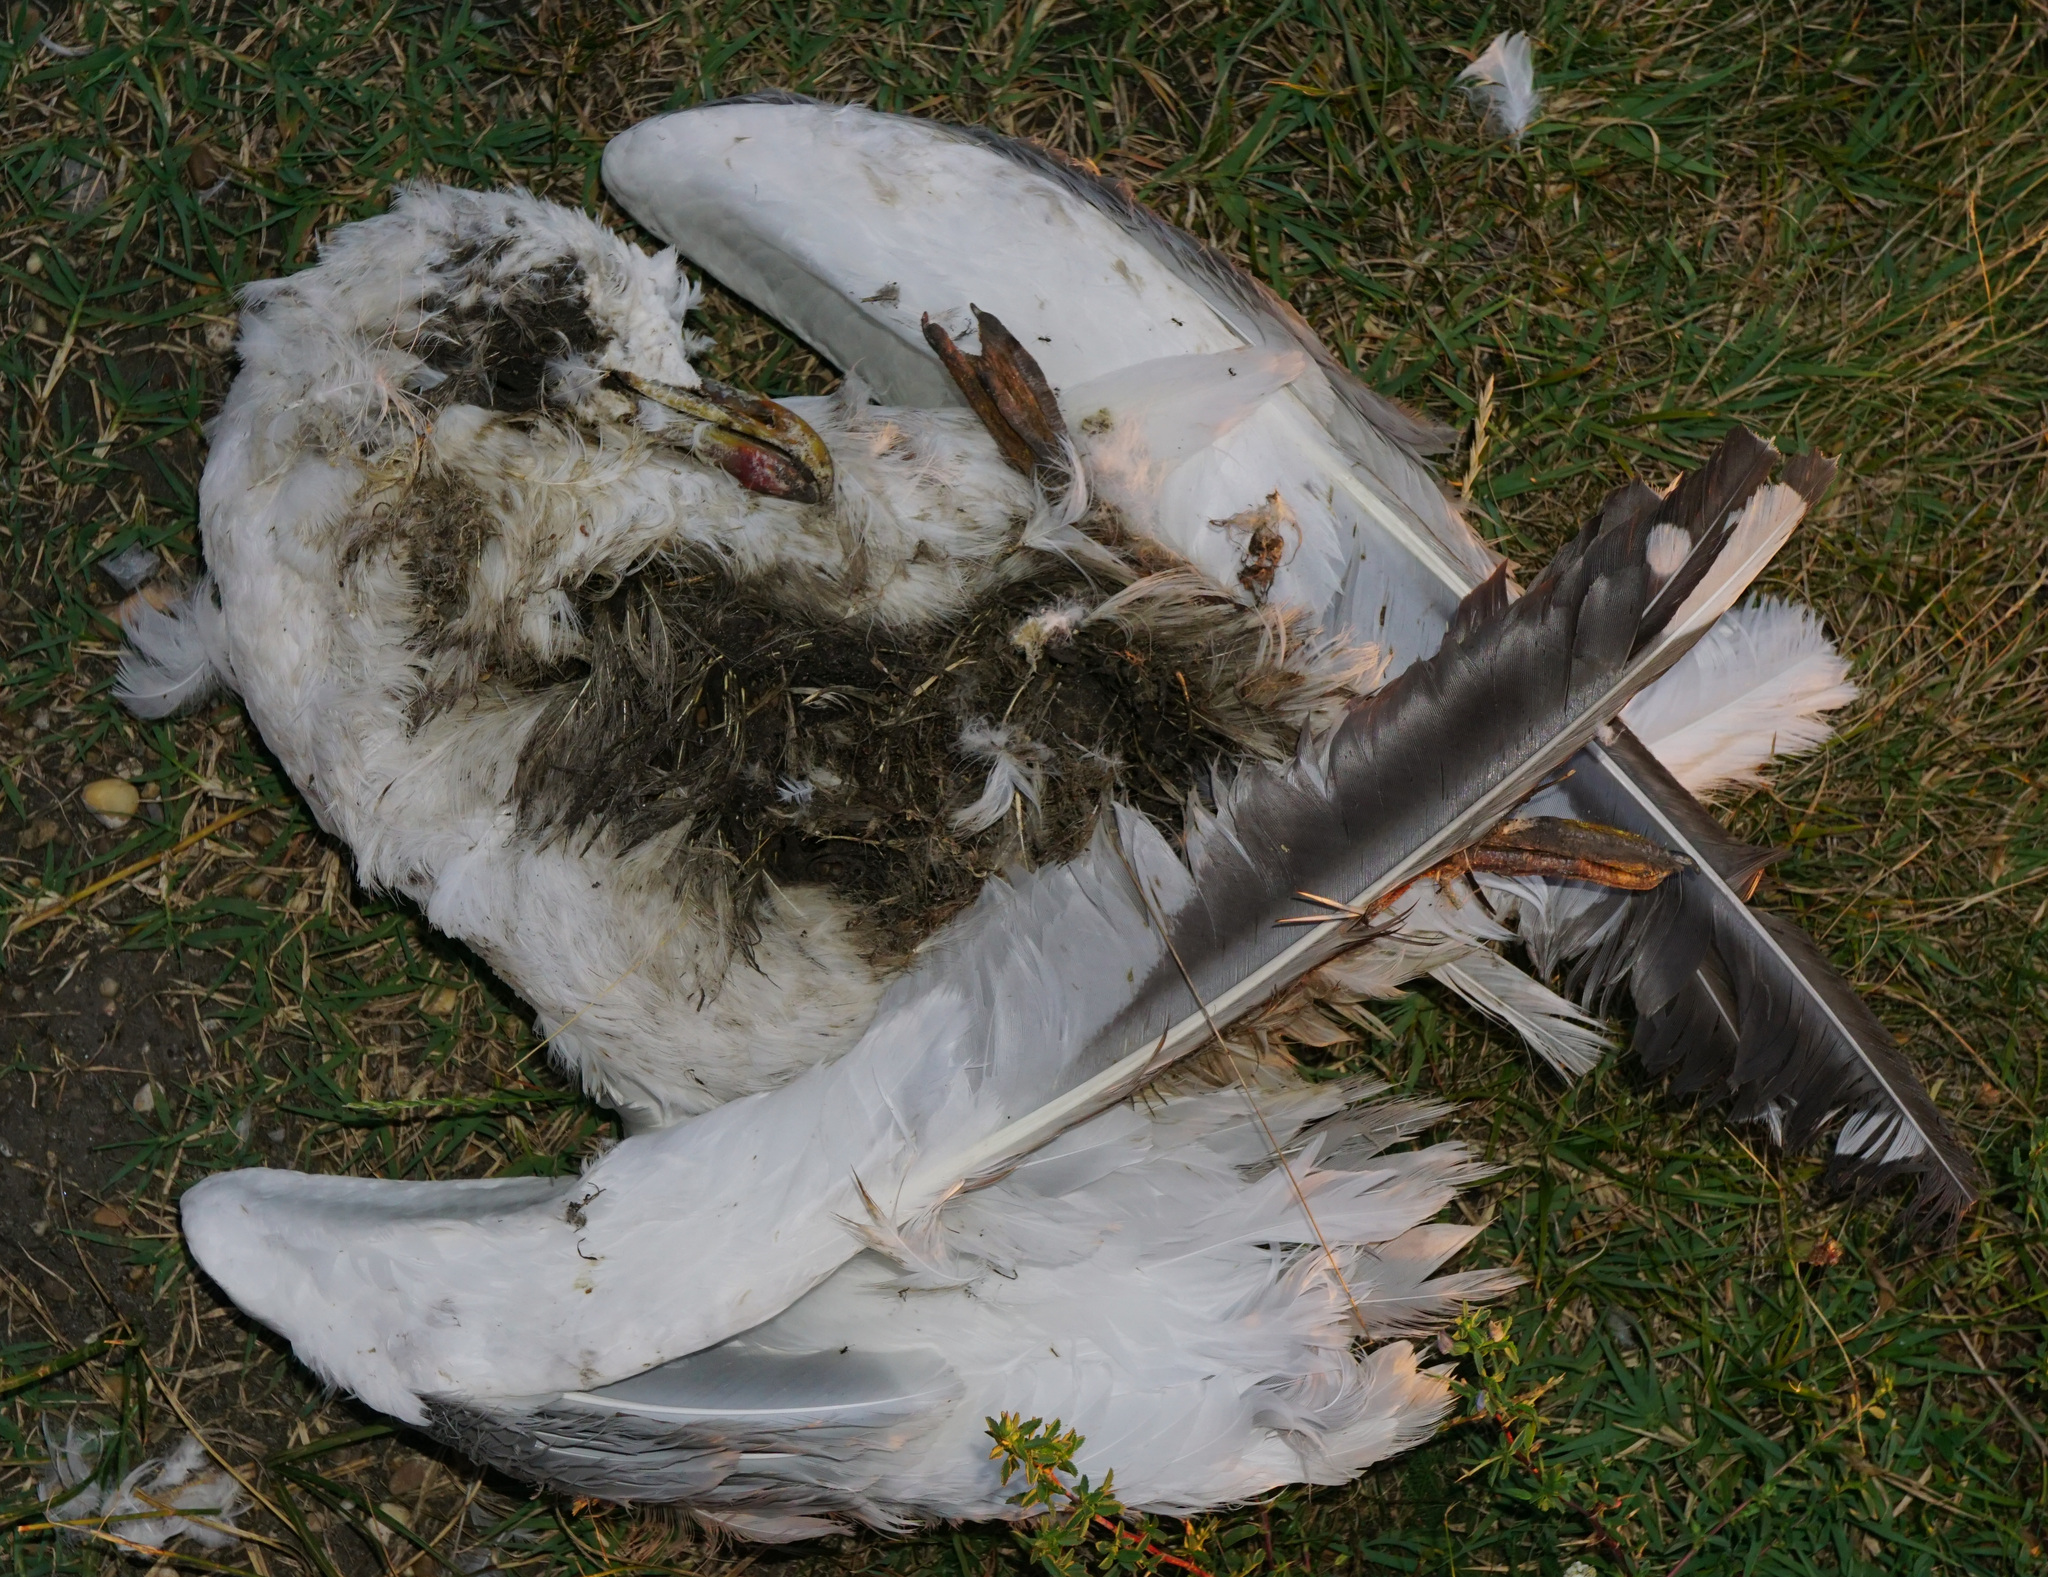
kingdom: Animalia
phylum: Chordata
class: Aves
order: Charadriiformes
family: Laridae
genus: Larus
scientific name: Larus michahellis
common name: Yellow-legged gull
